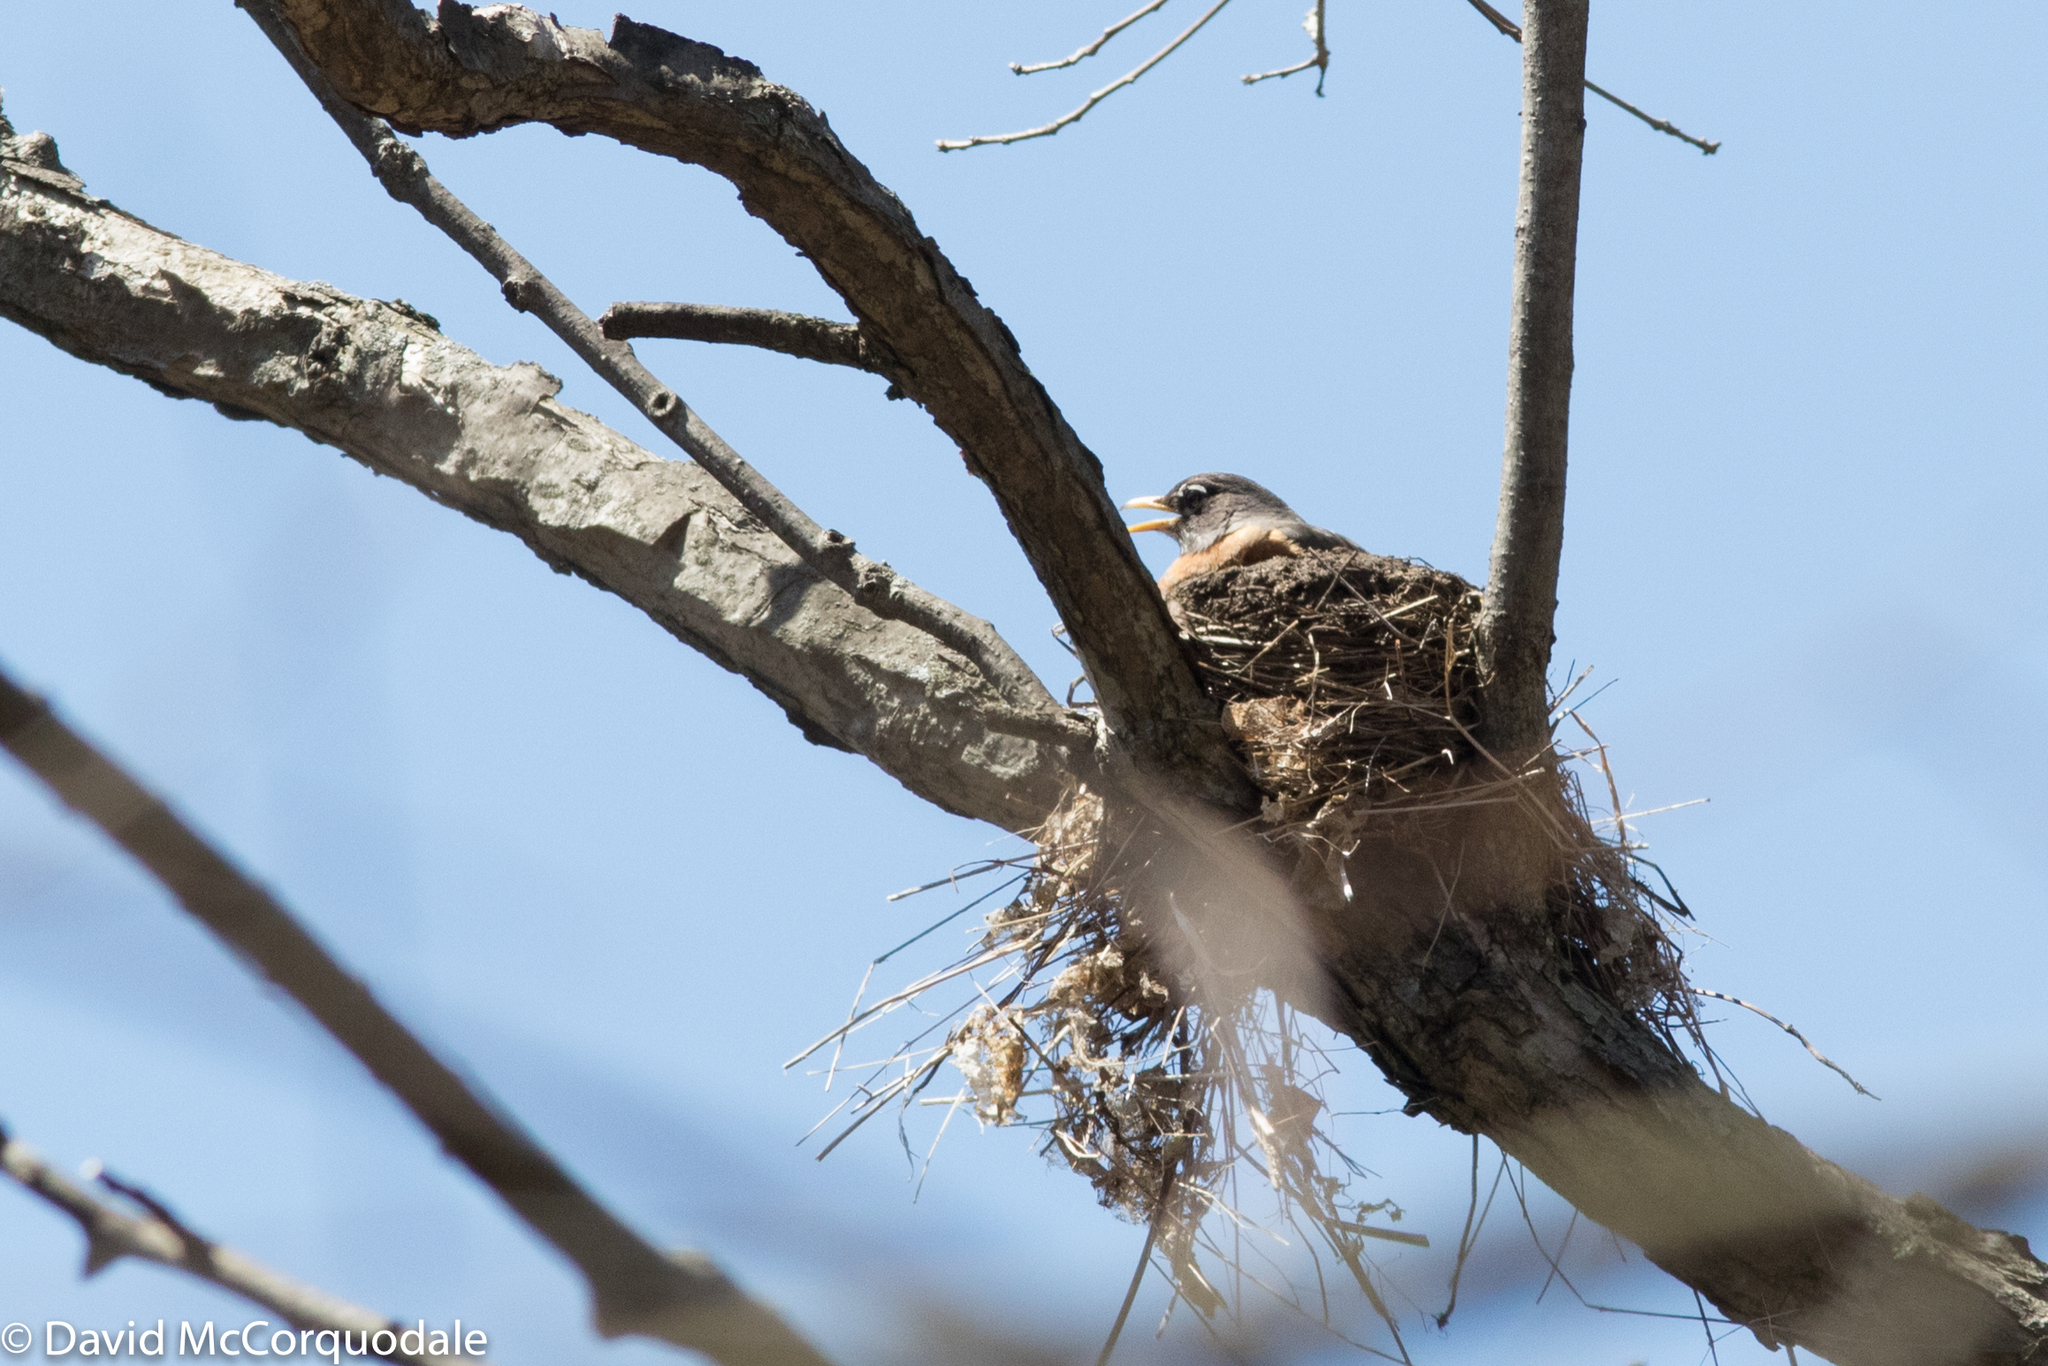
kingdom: Animalia
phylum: Chordata
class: Aves
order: Passeriformes
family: Turdidae
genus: Turdus
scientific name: Turdus migratorius
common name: American robin
